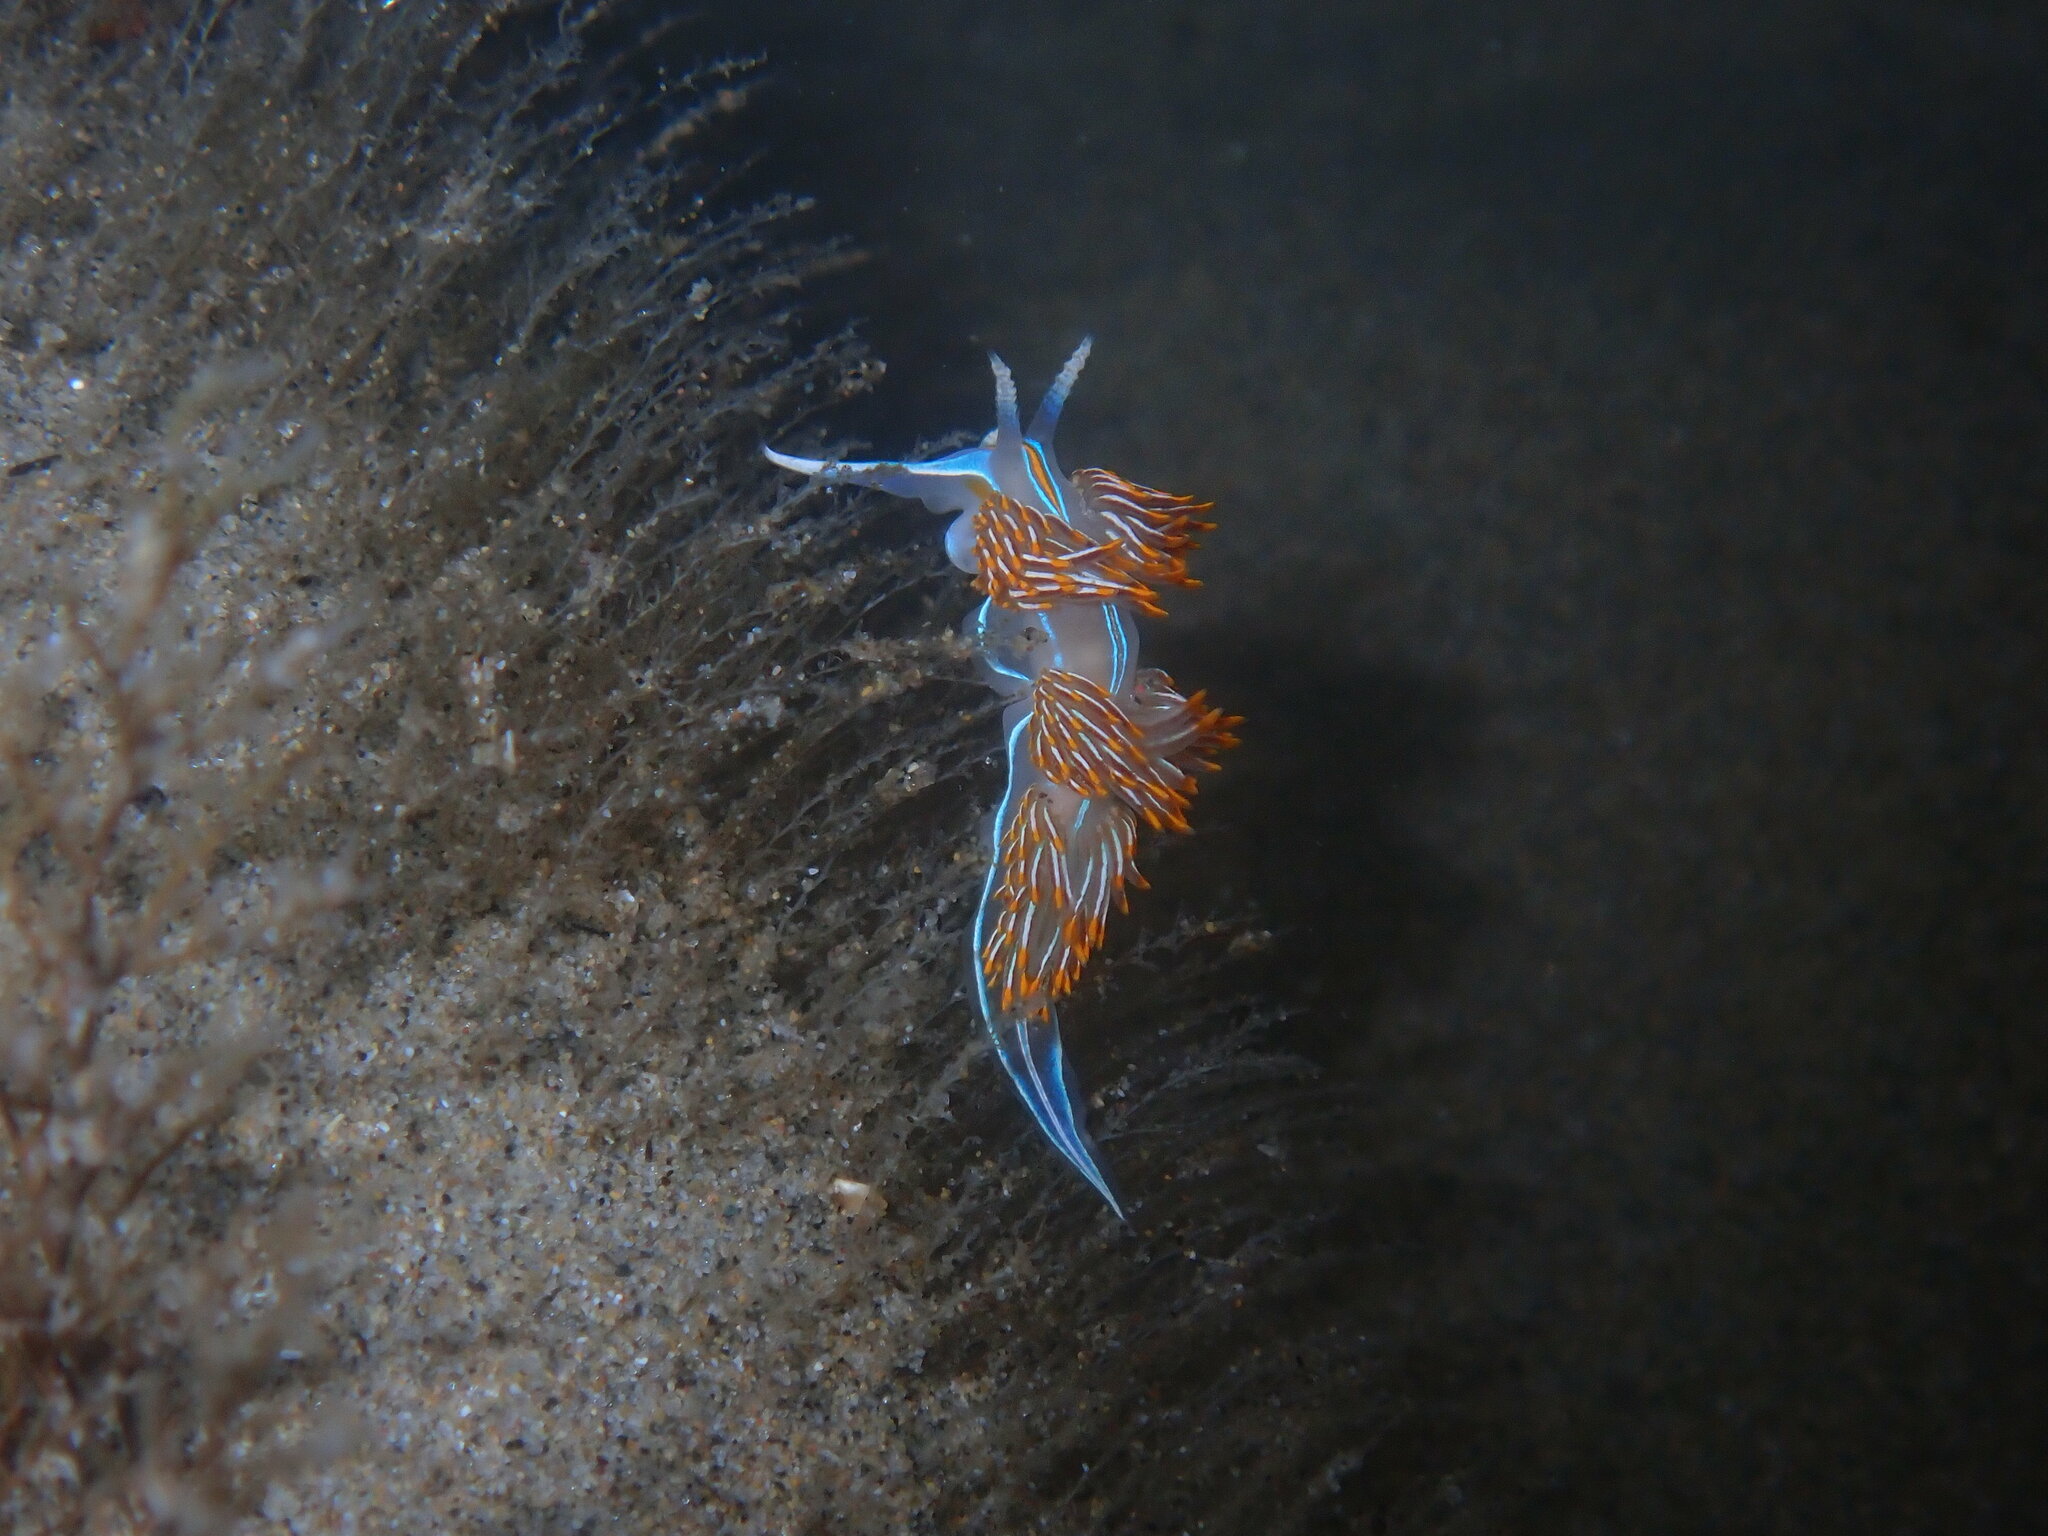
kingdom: Animalia
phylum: Mollusca
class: Gastropoda
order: Nudibranchia
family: Myrrhinidae
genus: Hermissenda
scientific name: Hermissenda crassicornis
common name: Hermissenda
